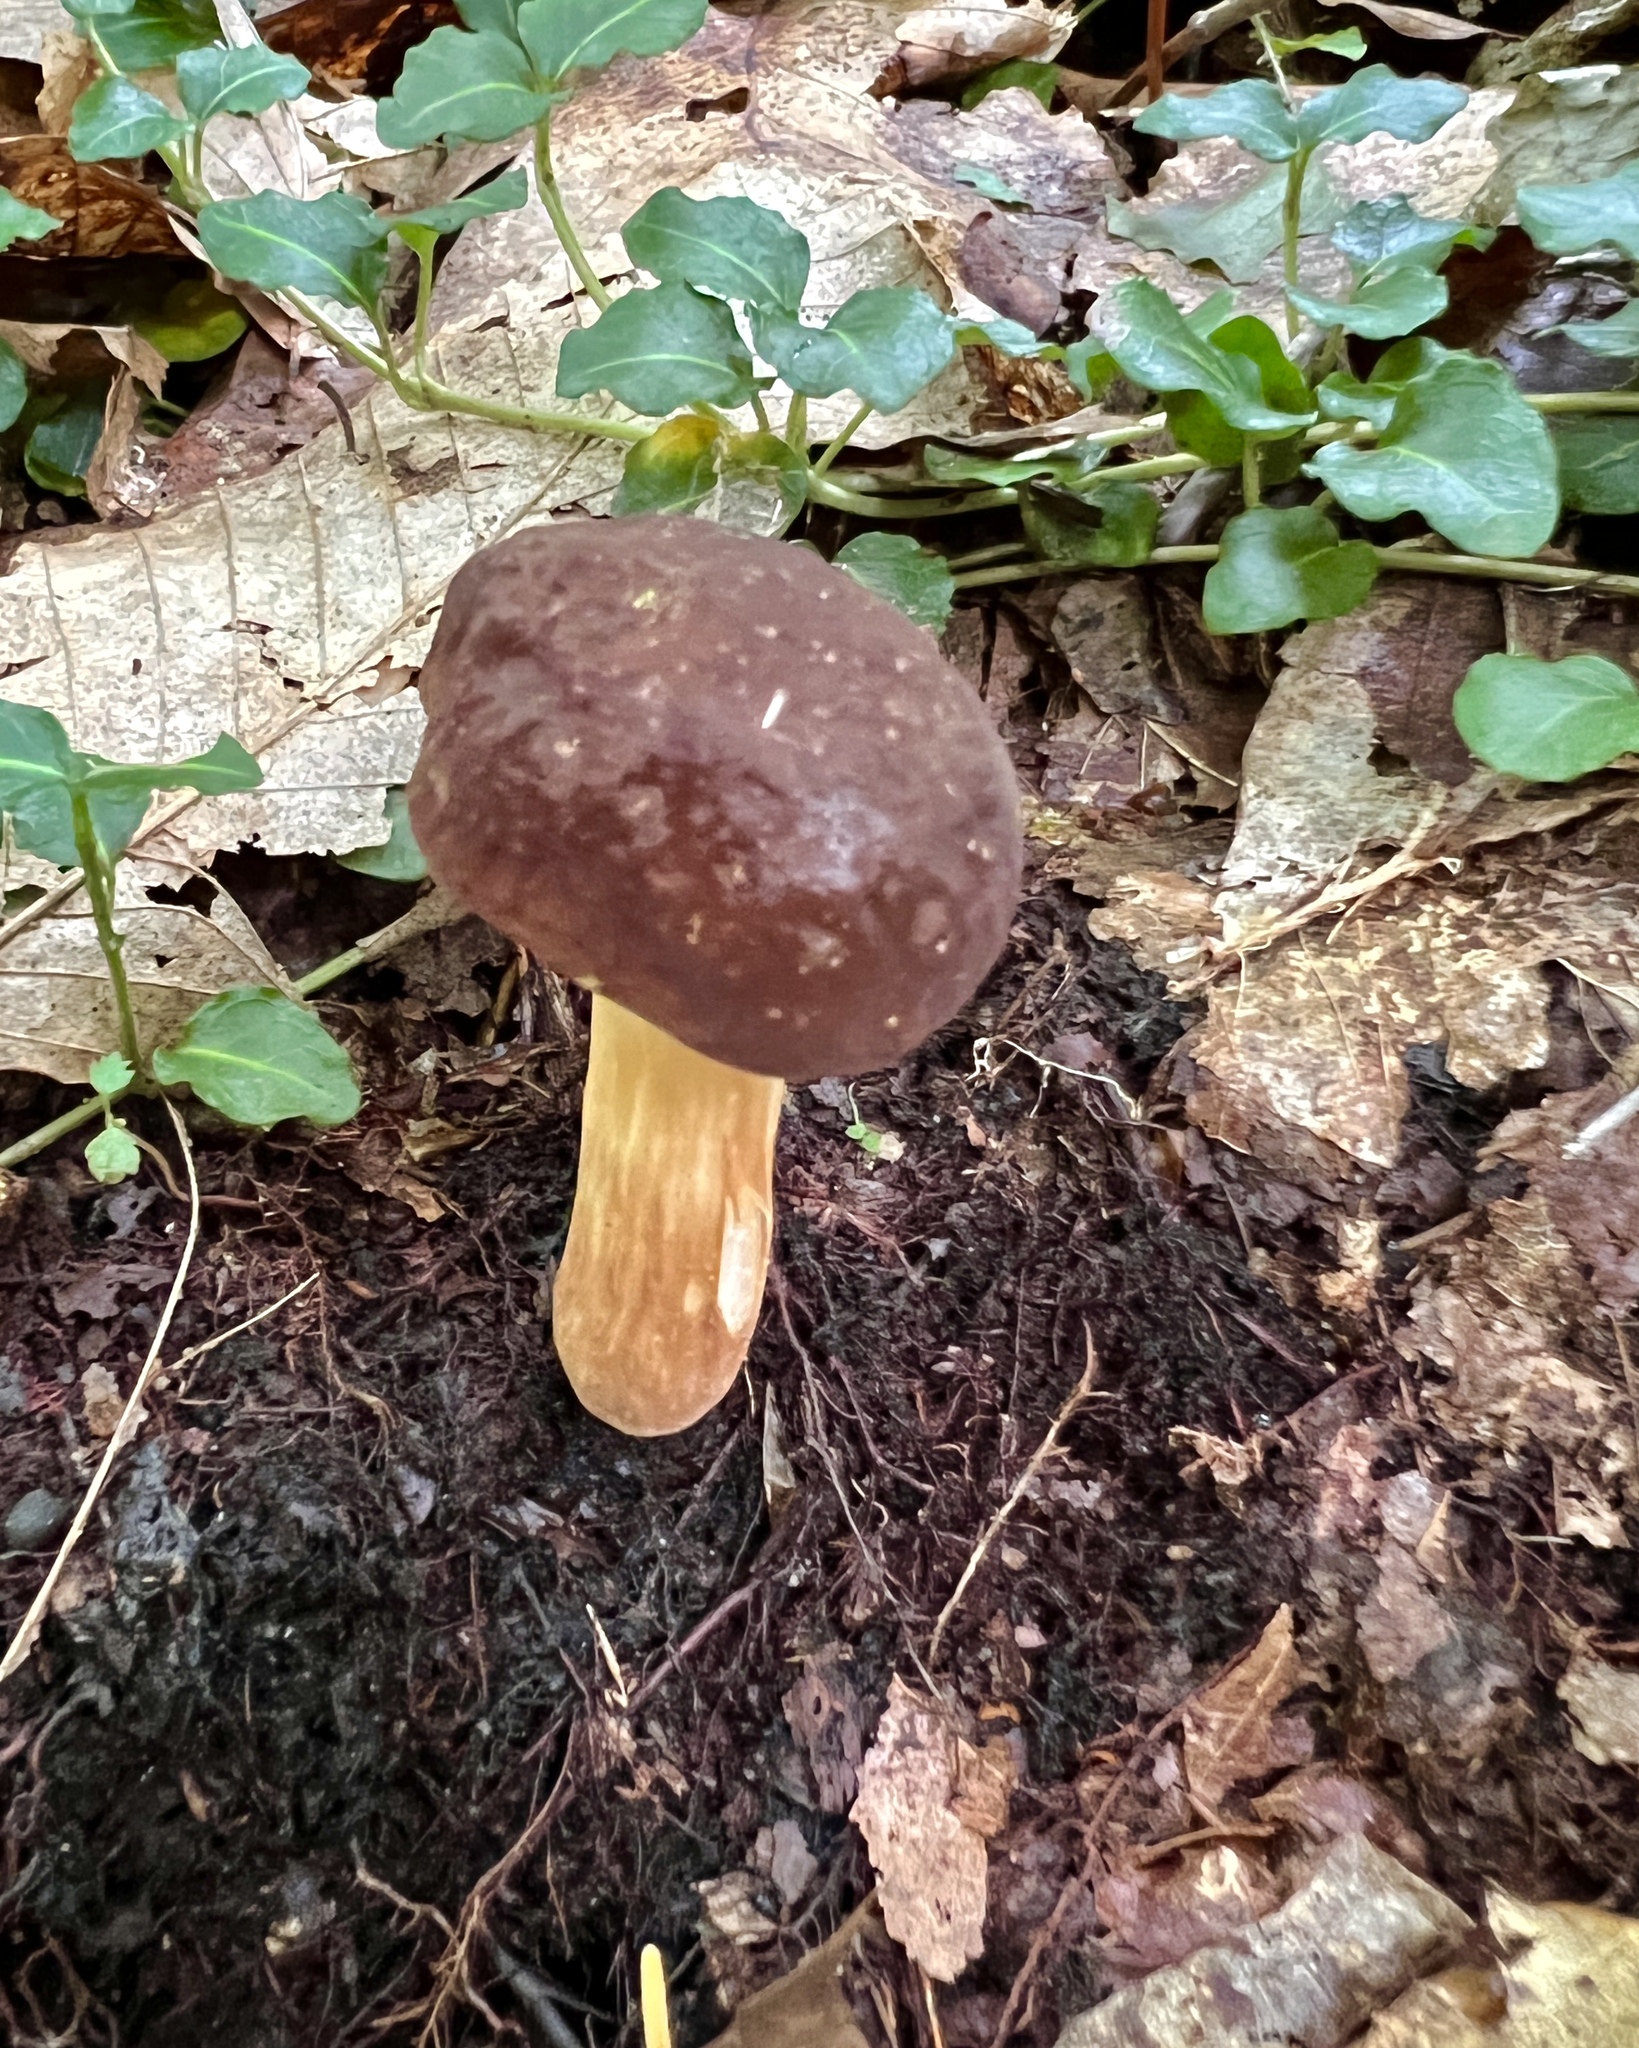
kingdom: Fungi
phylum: Basidiomycota
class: Agaricomycetes
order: Boletales
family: Boletaceae
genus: Xanthoconium
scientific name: Xanthoconium affine
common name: Spotted bolete
